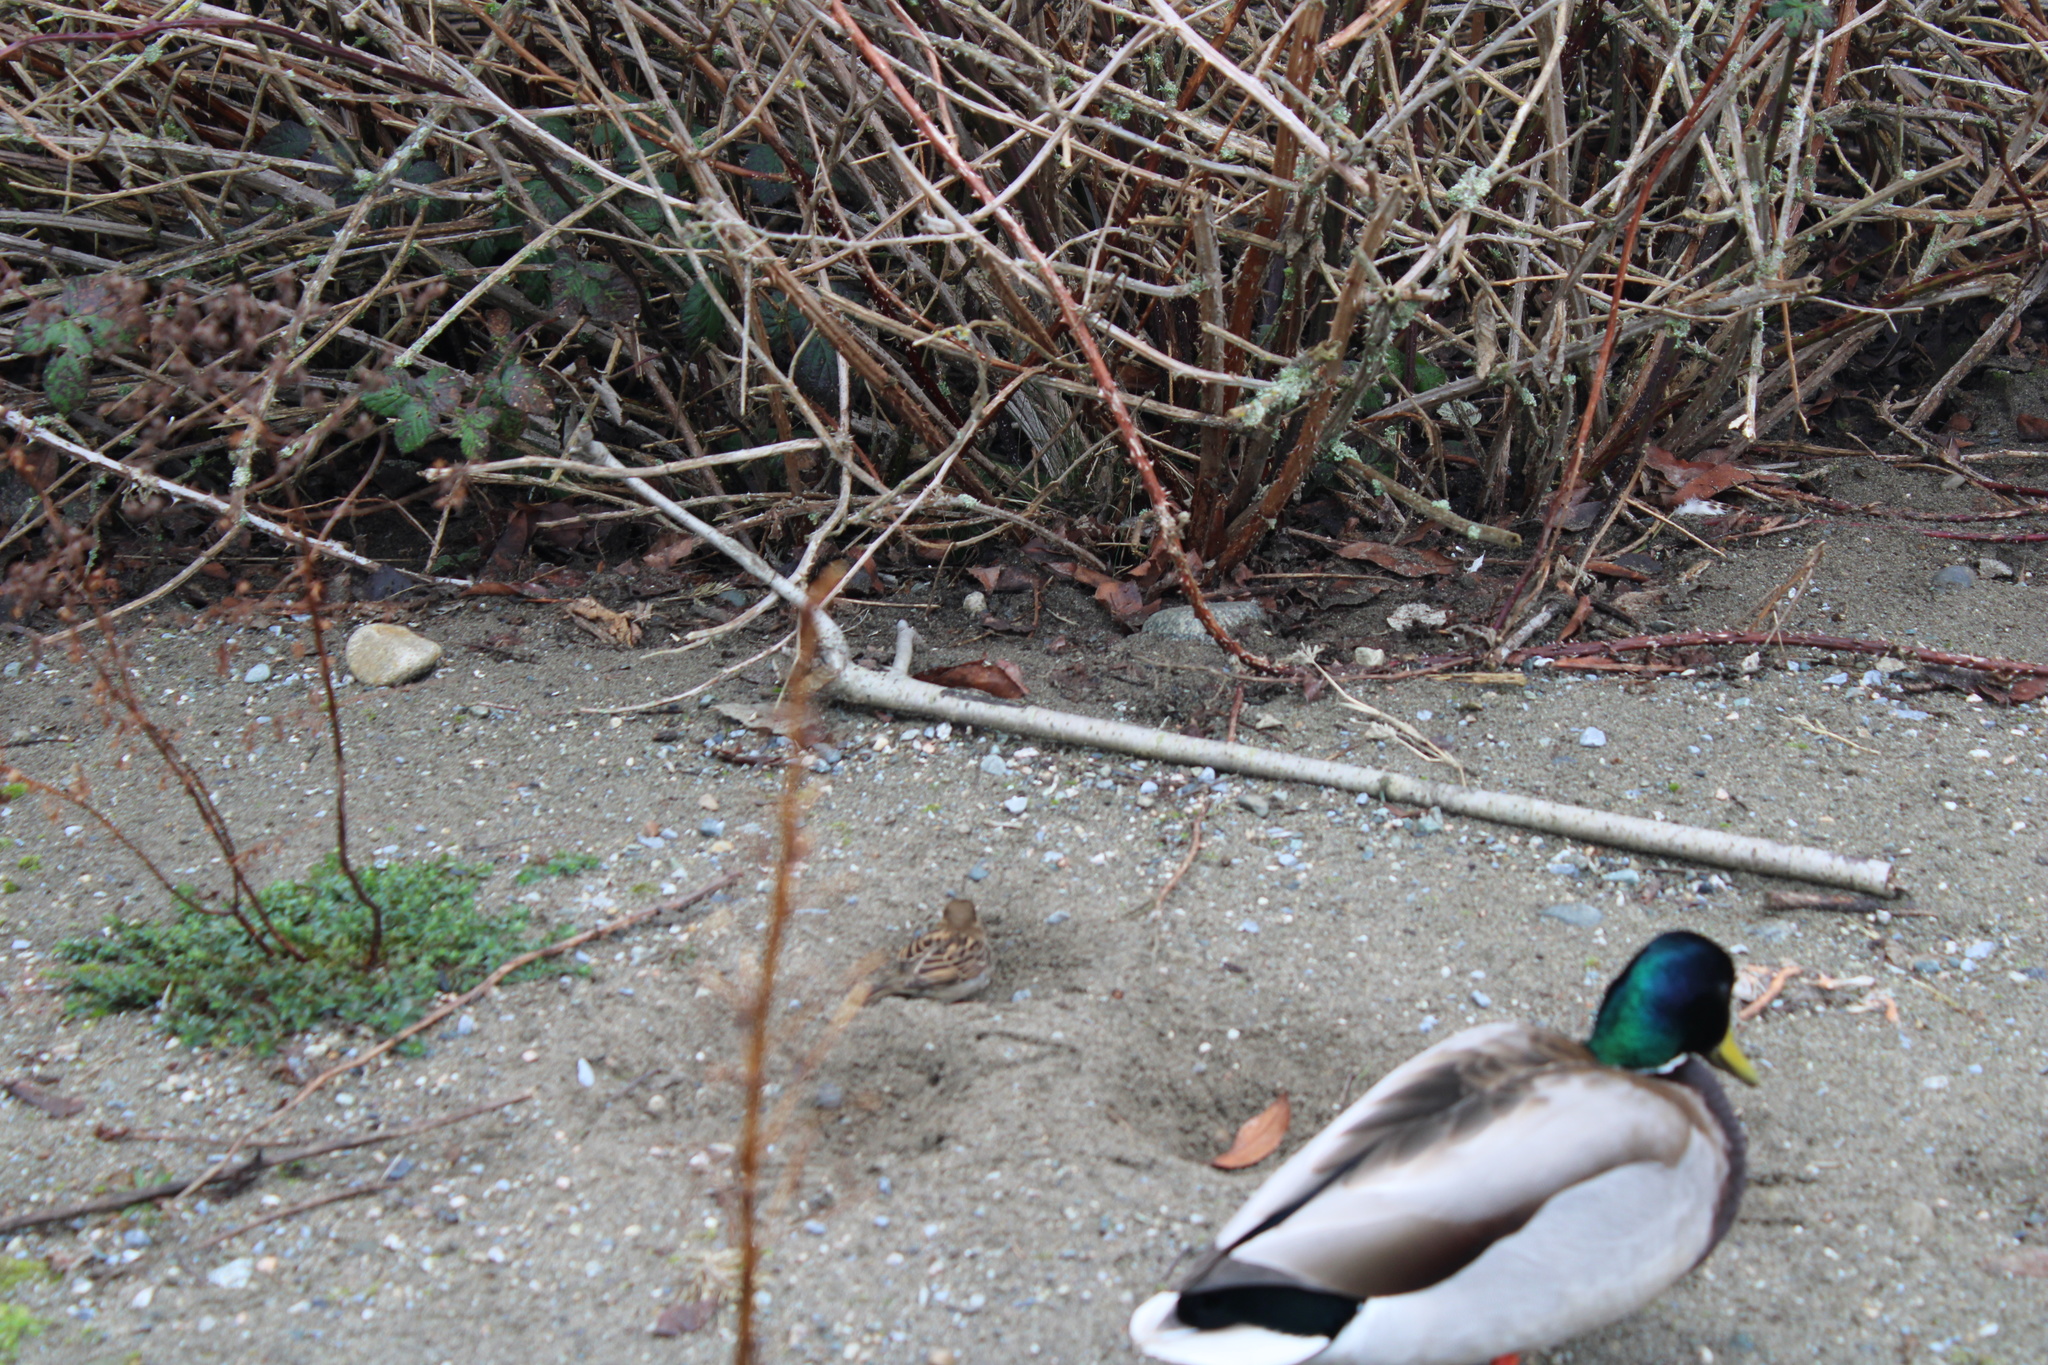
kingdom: Animalia
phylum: Chordata
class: Aves
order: Anseriformes
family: Anatidae
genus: Anas
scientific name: Anas platyrhynchos
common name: Mallard
